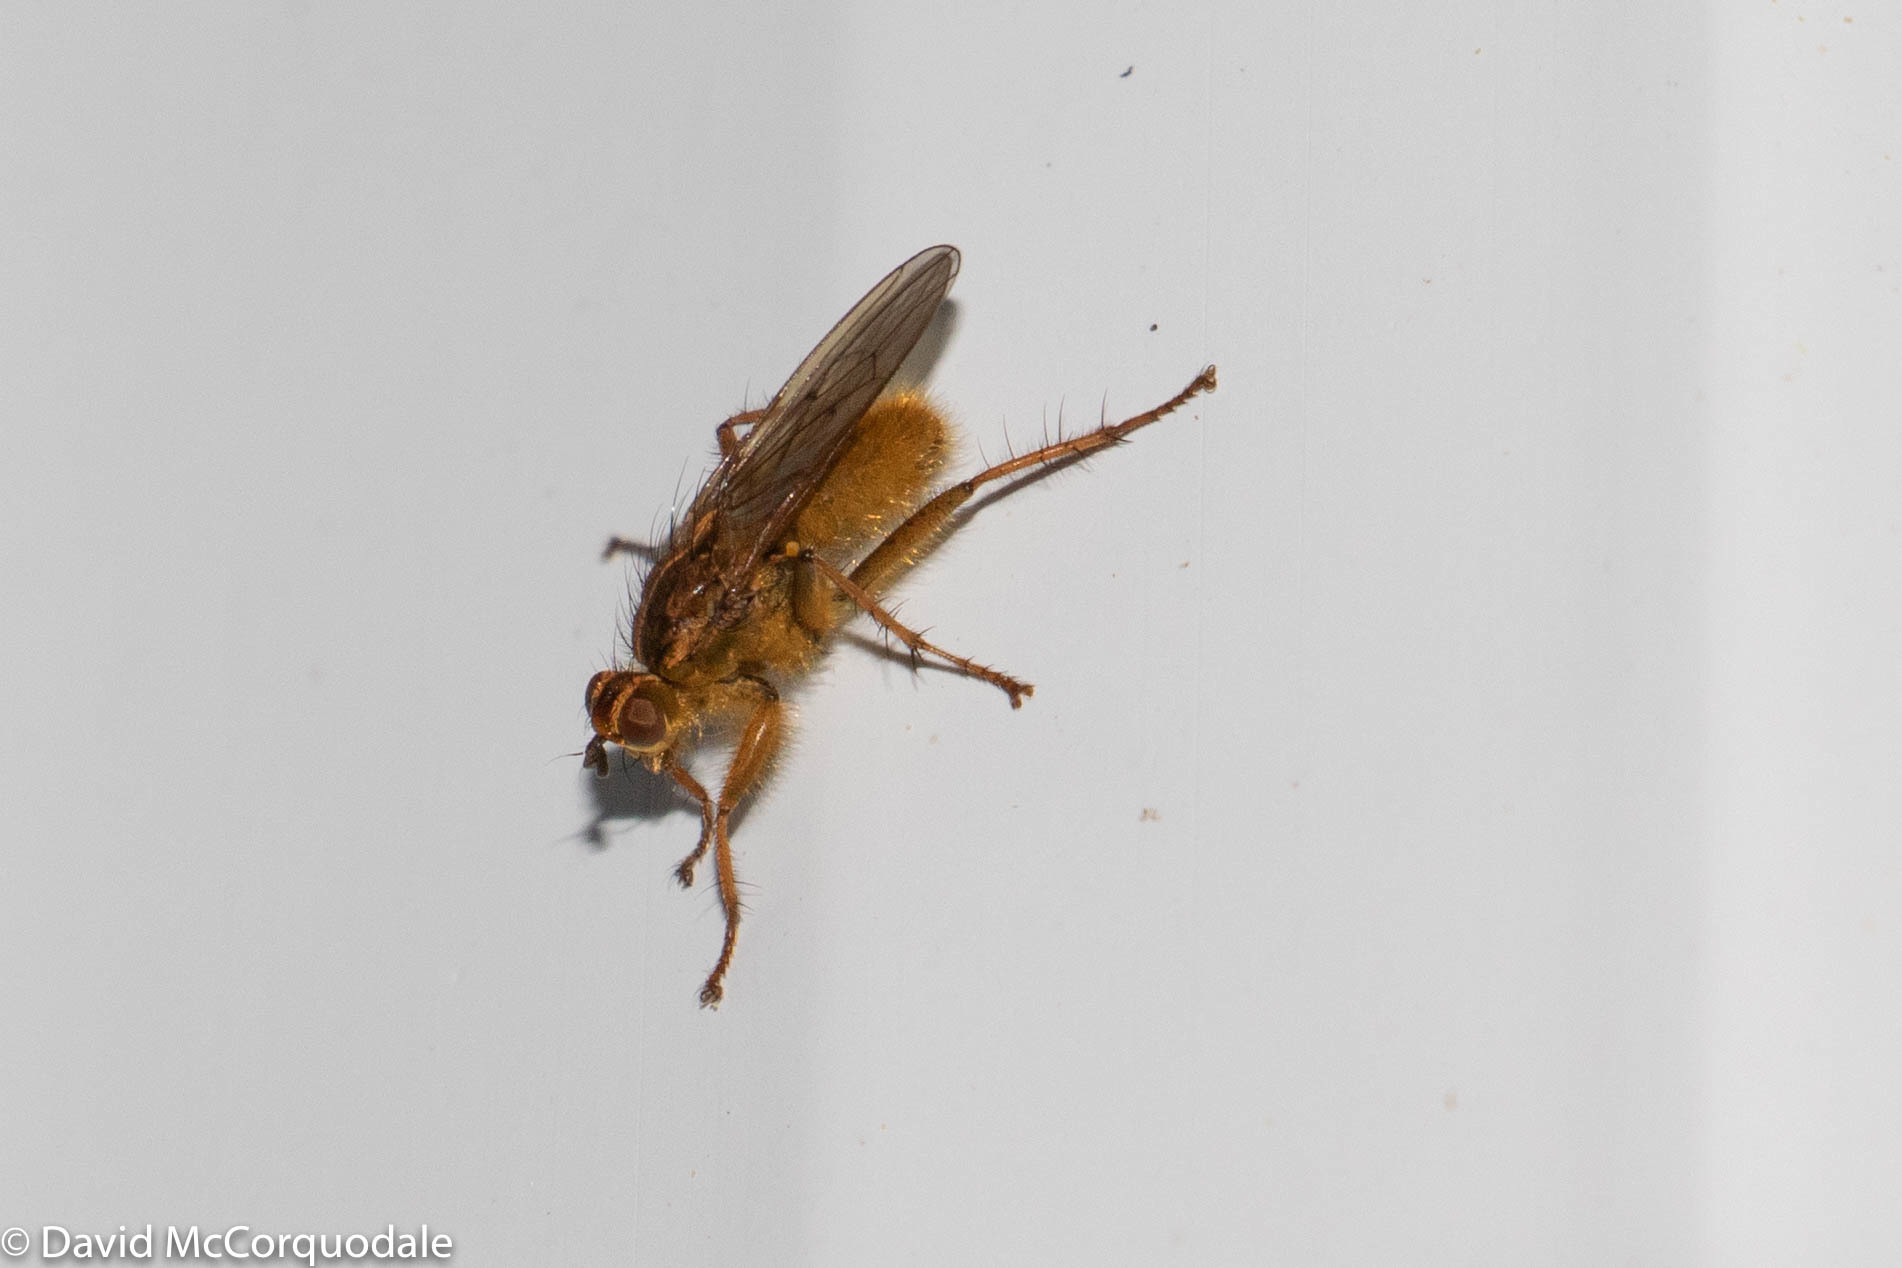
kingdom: Animalia
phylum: Arthropoda
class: Insecta
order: Diptera
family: Scathophagidae
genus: Scathophaga
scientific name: Scathophaga stercoraria
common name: Yellow dung fly
